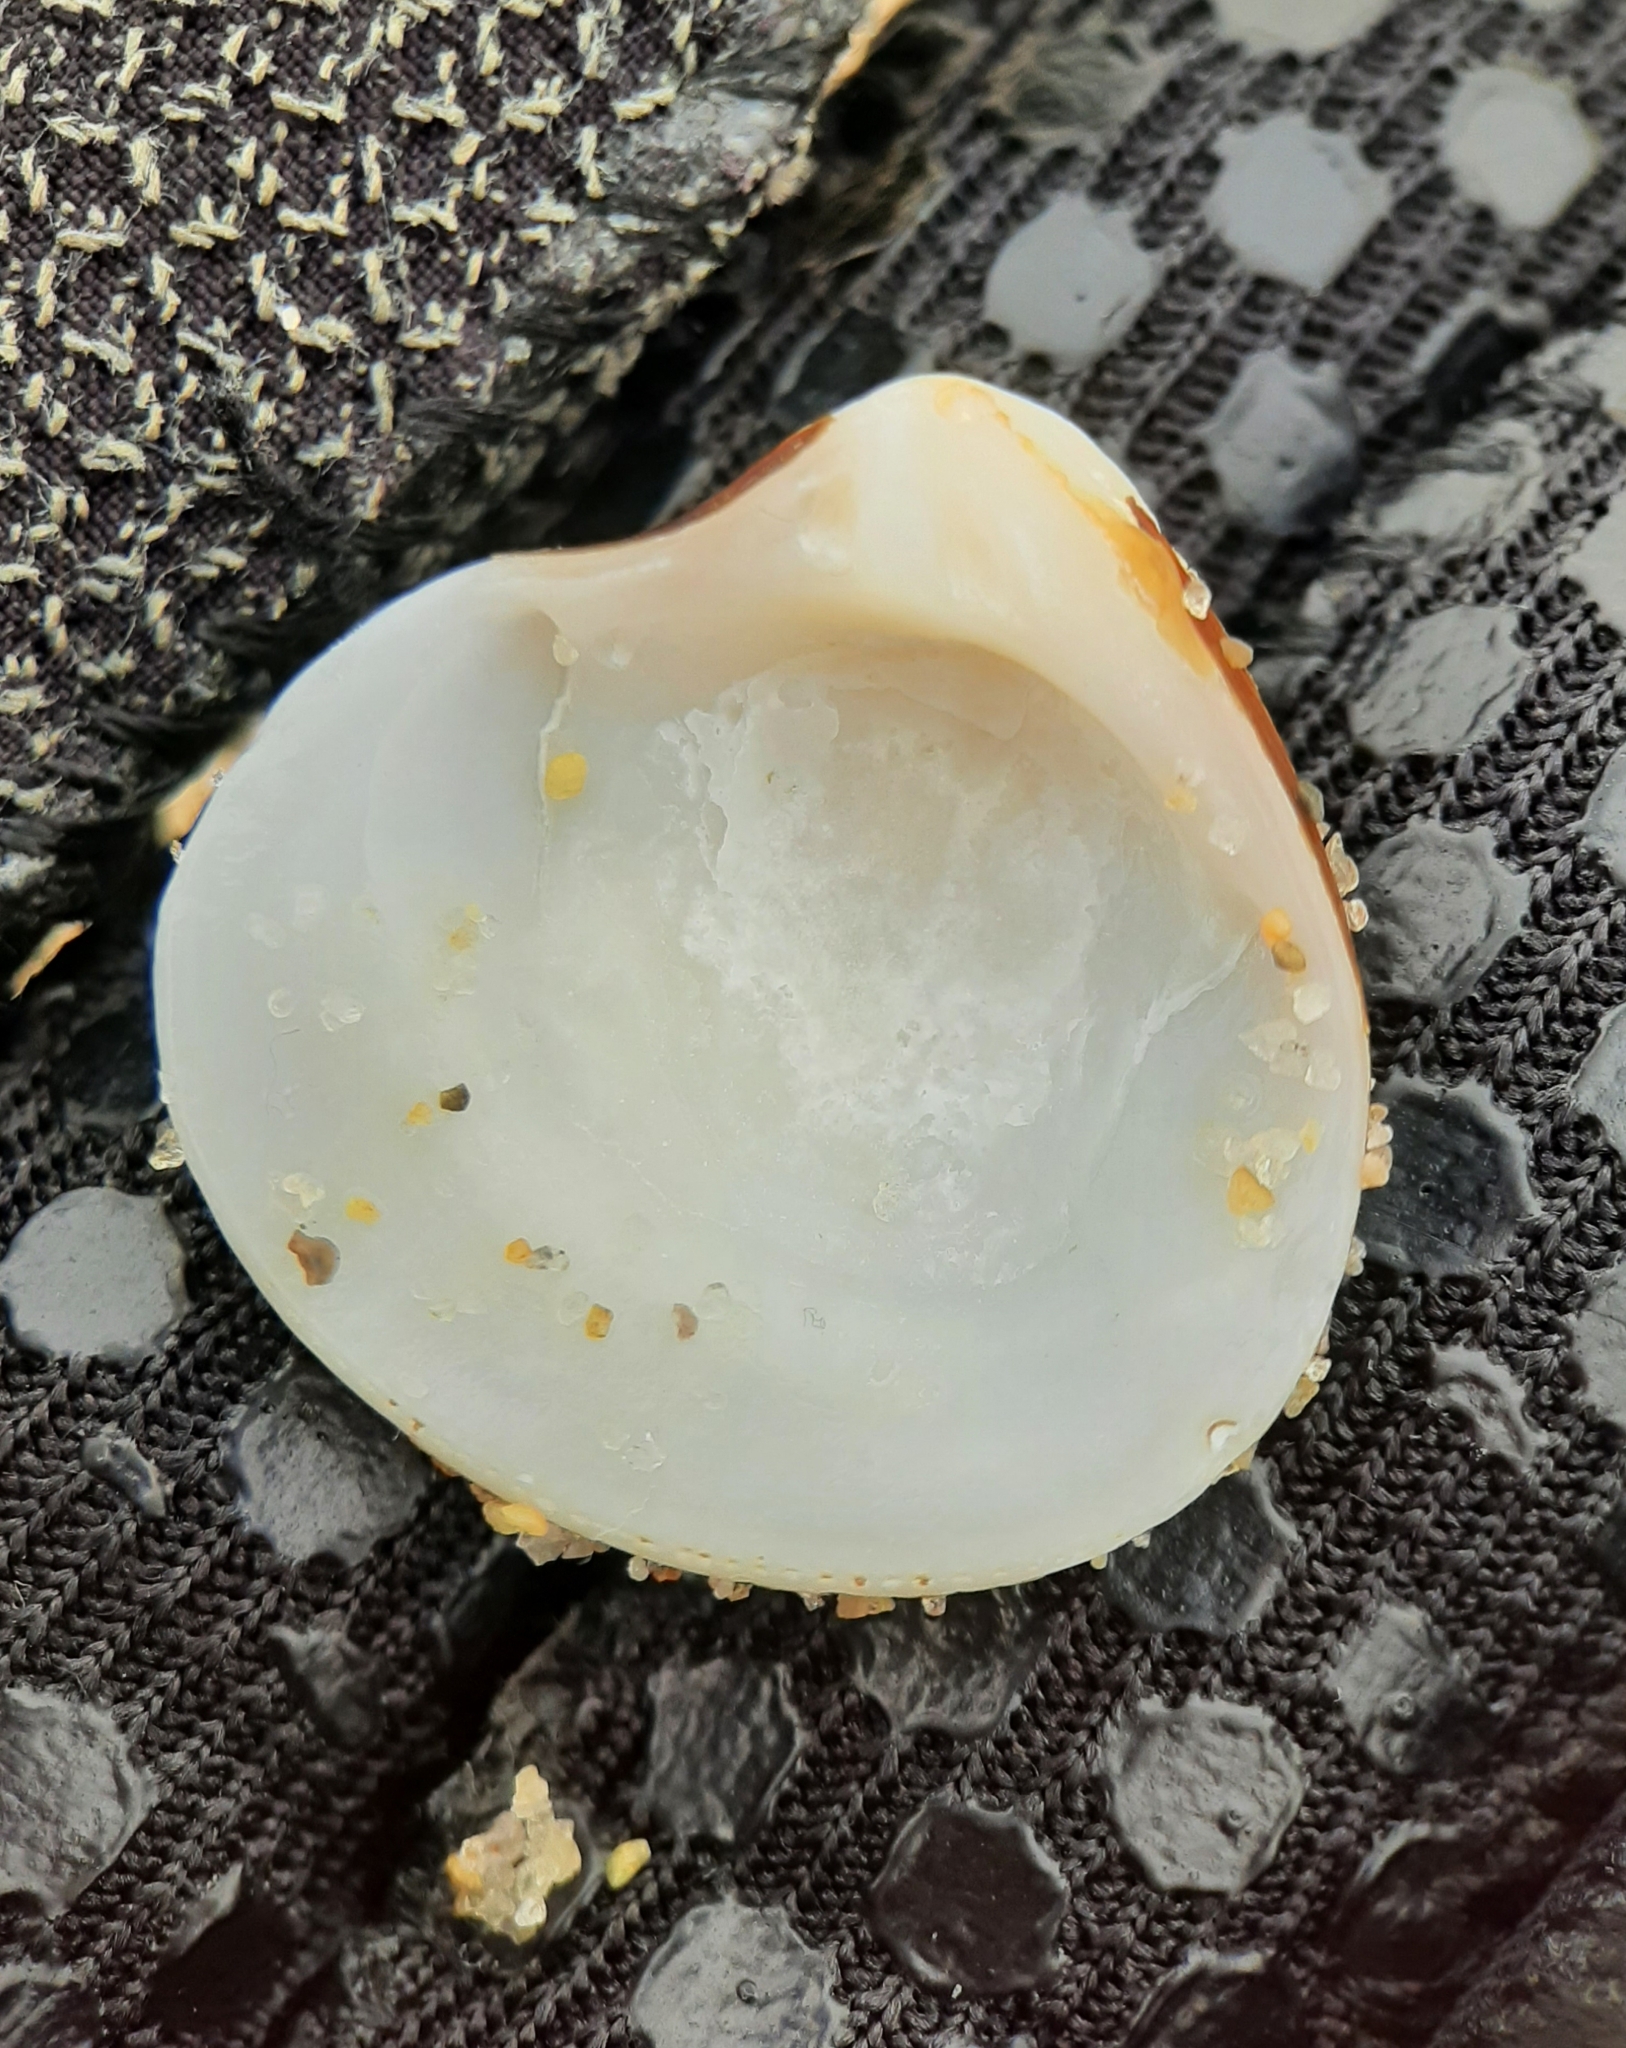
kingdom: Animalia
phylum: Mollusca
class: Bivalvia
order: Cardiida
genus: Isocrassina
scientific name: Isocrassina
